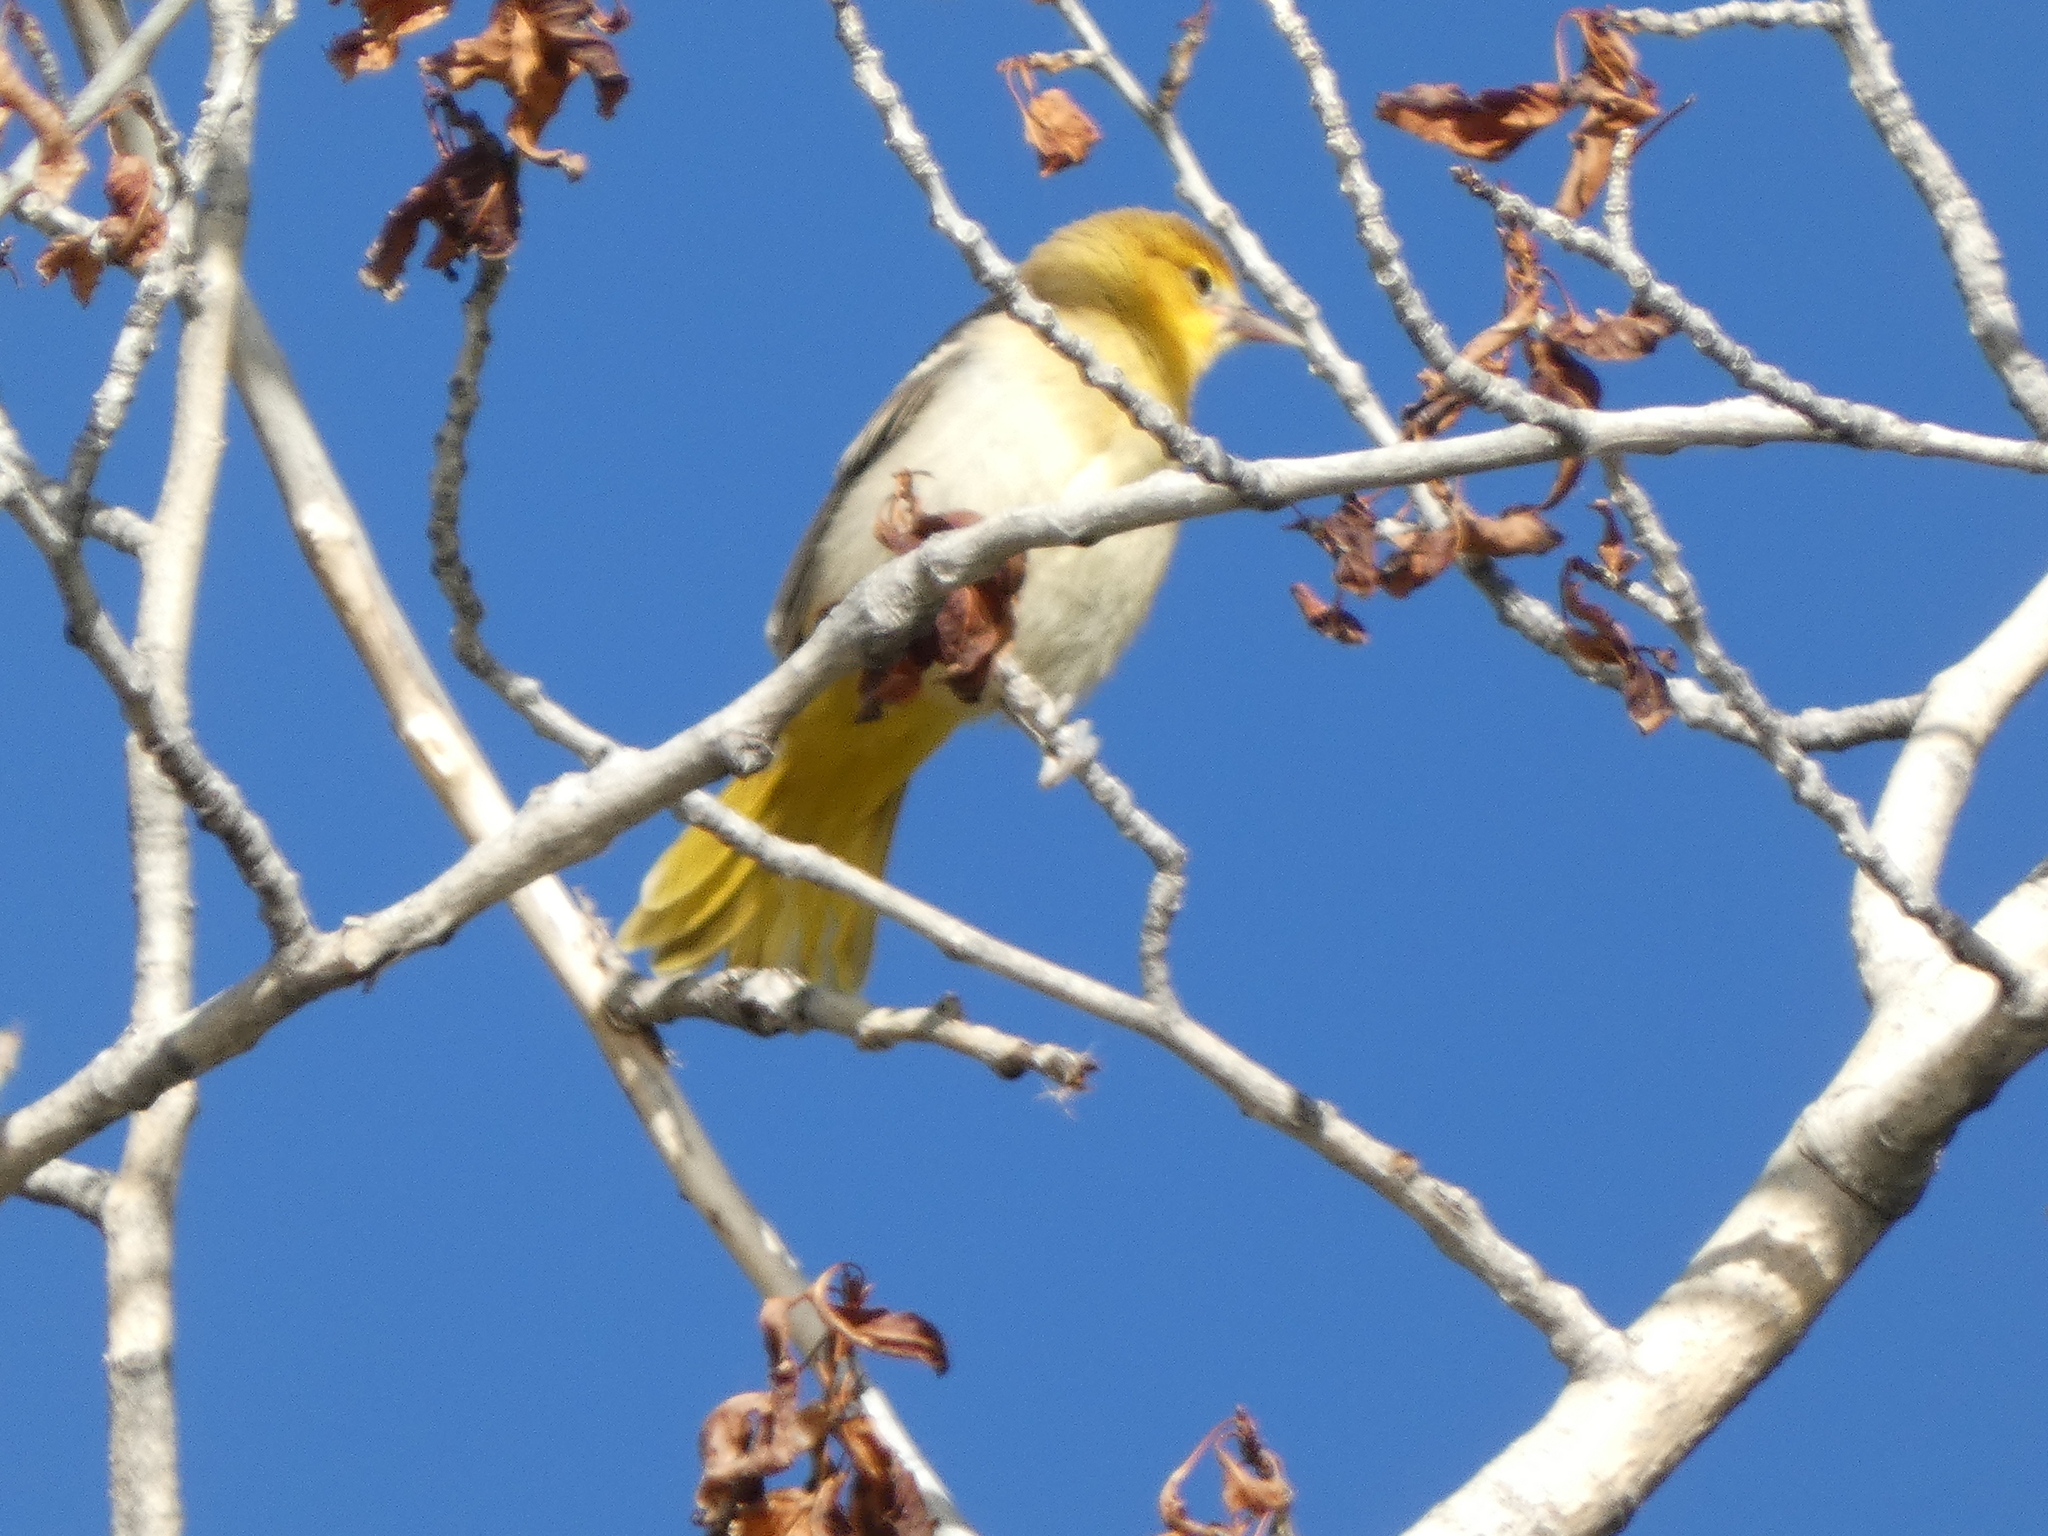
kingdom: Animalia
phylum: Chordata
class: Aves
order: Passeriformes
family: Icteridae
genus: Icterus
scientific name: Icterus bullockii
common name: Bullock's oriole
